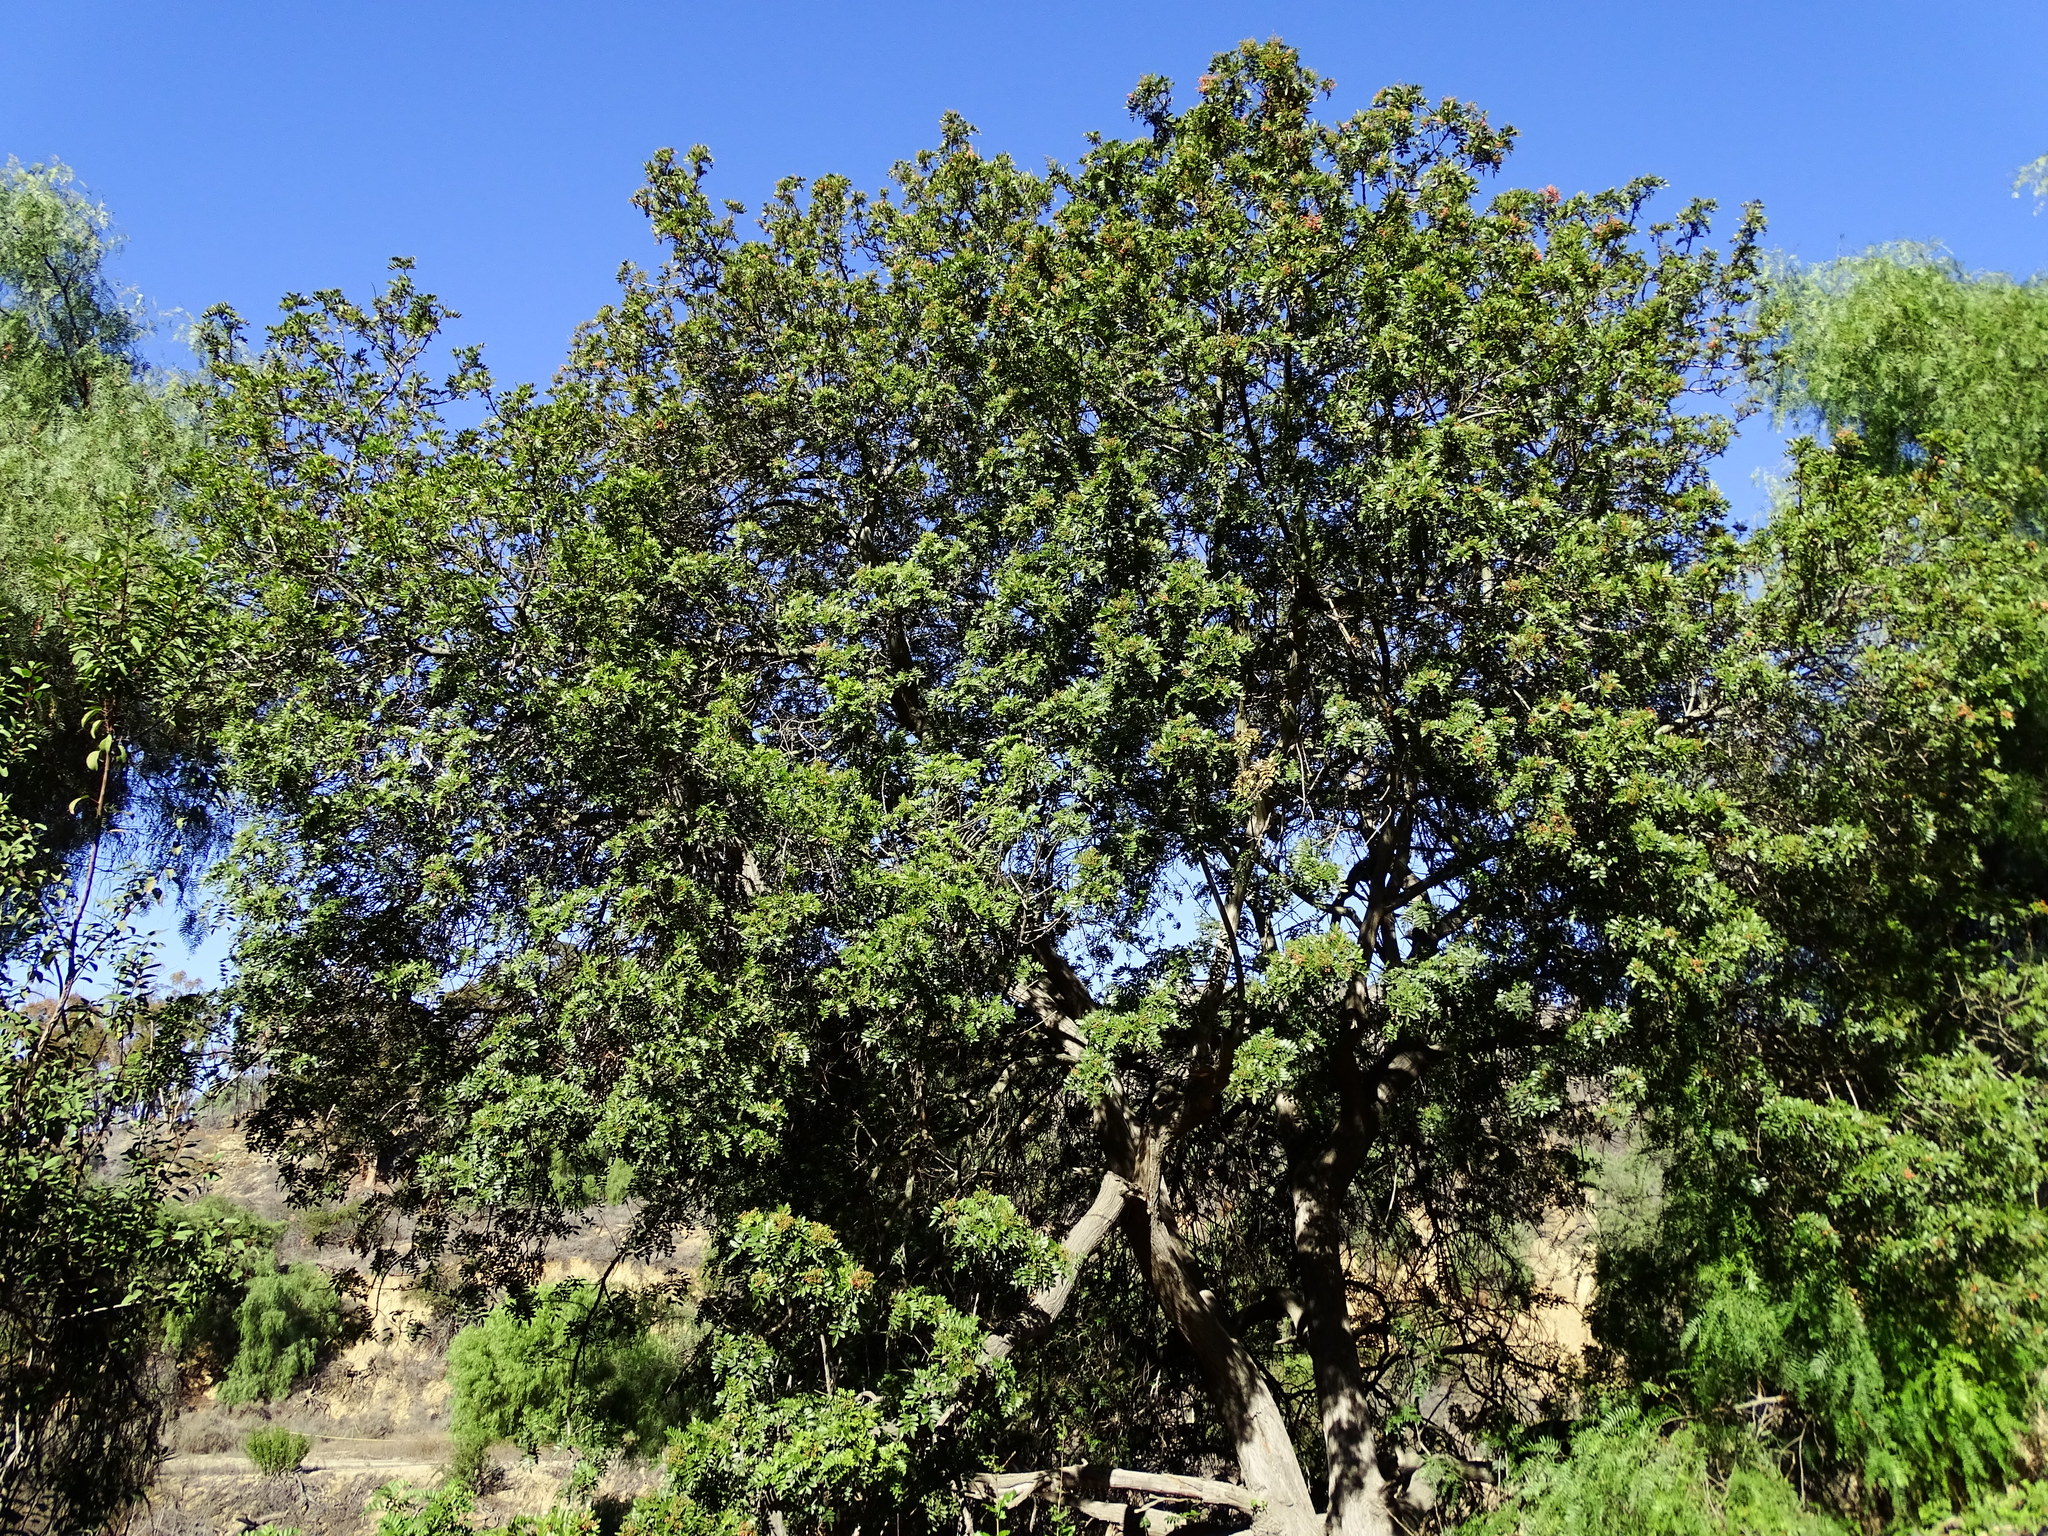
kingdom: Plantae
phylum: Tracheophyta
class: Magnoliopsida
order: Sapindales
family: Anacardiaceae
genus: Schinus
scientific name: Schinus terebinthifolia
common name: Brazilian peppertree
